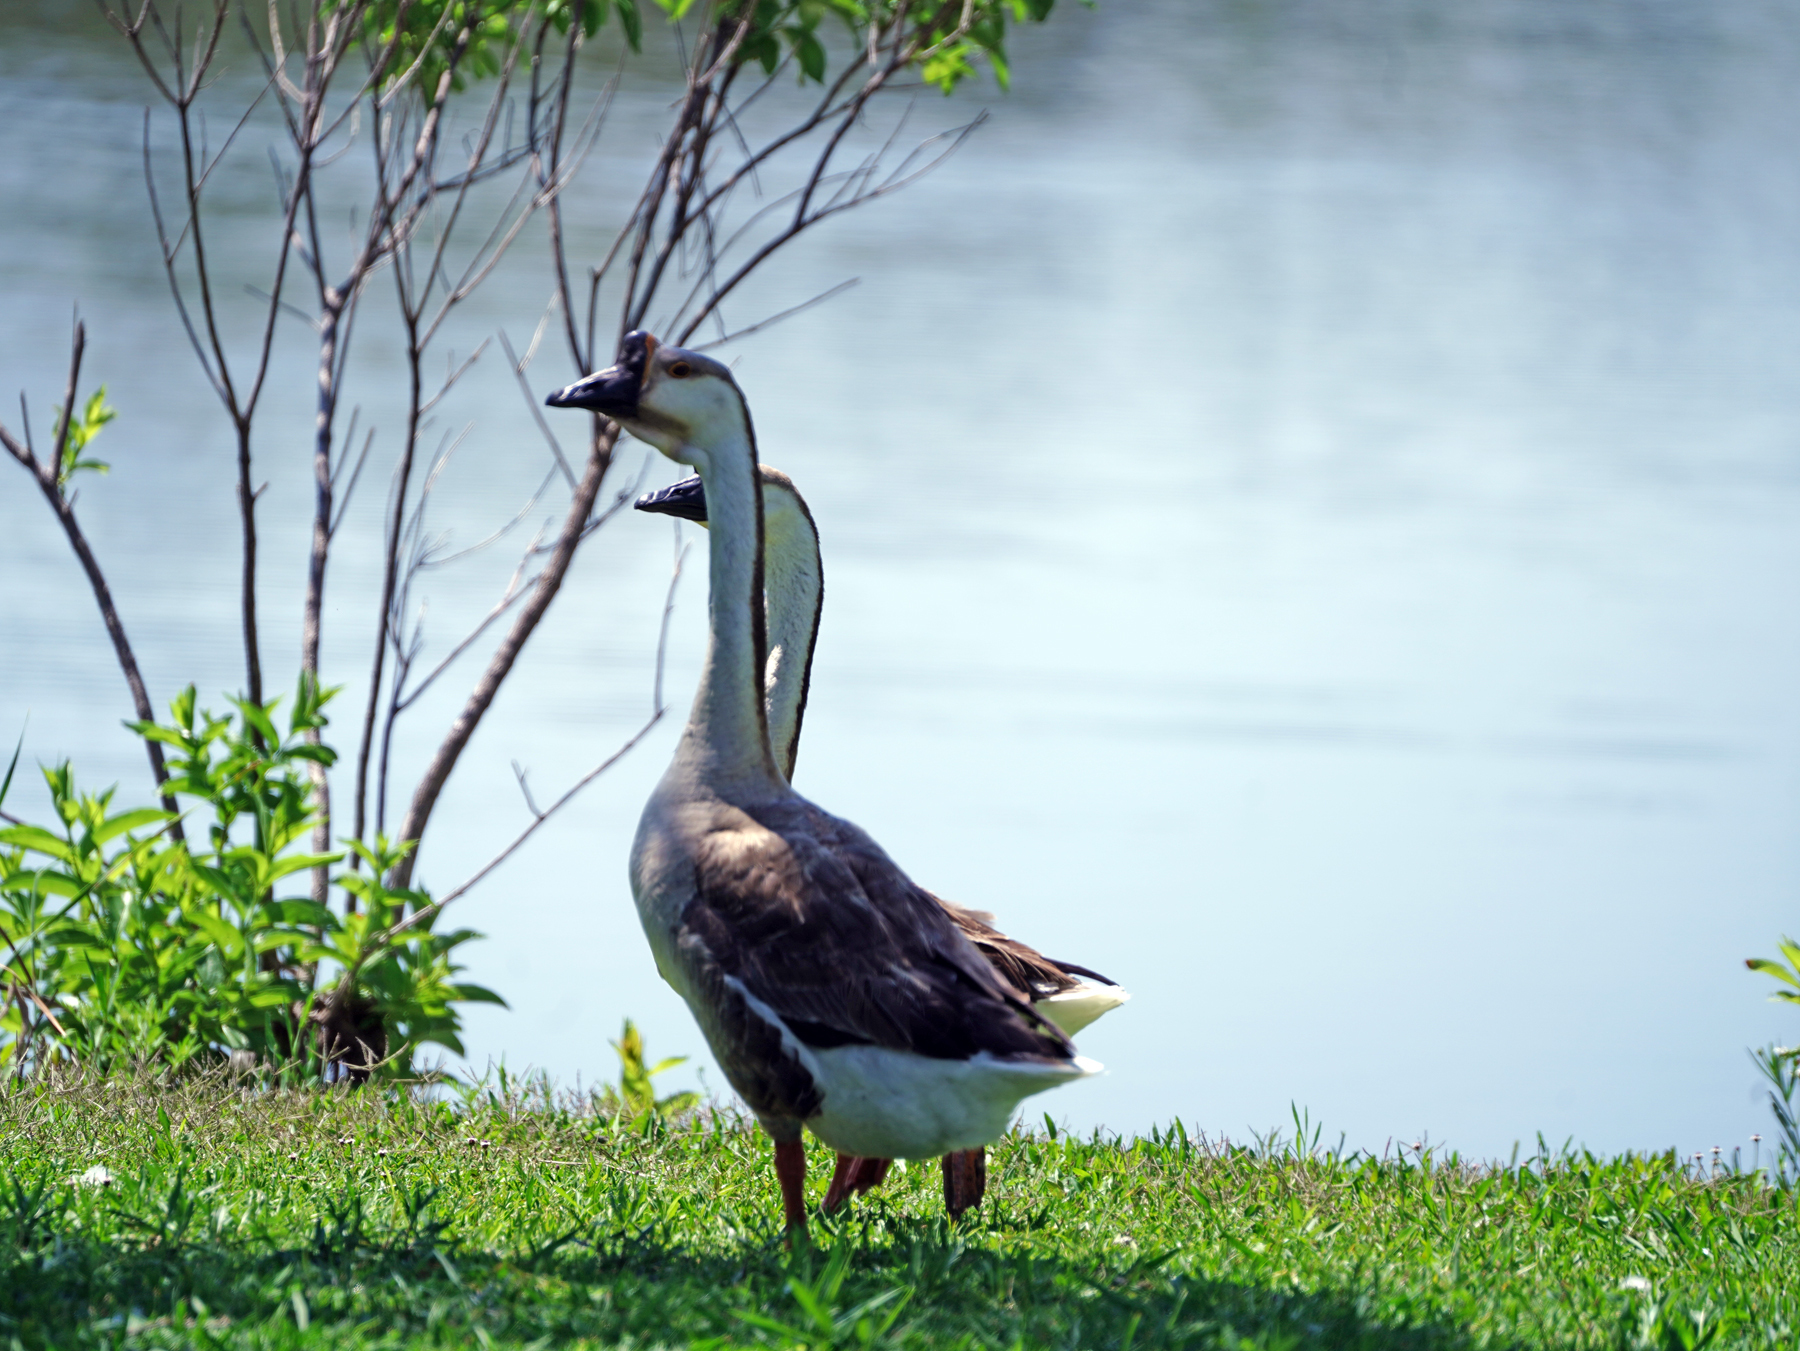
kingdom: Animalia
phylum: Chordata
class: Aves
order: Anseriformes
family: Anatidae
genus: Anser
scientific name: Anser cygnoides
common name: Swan goose
